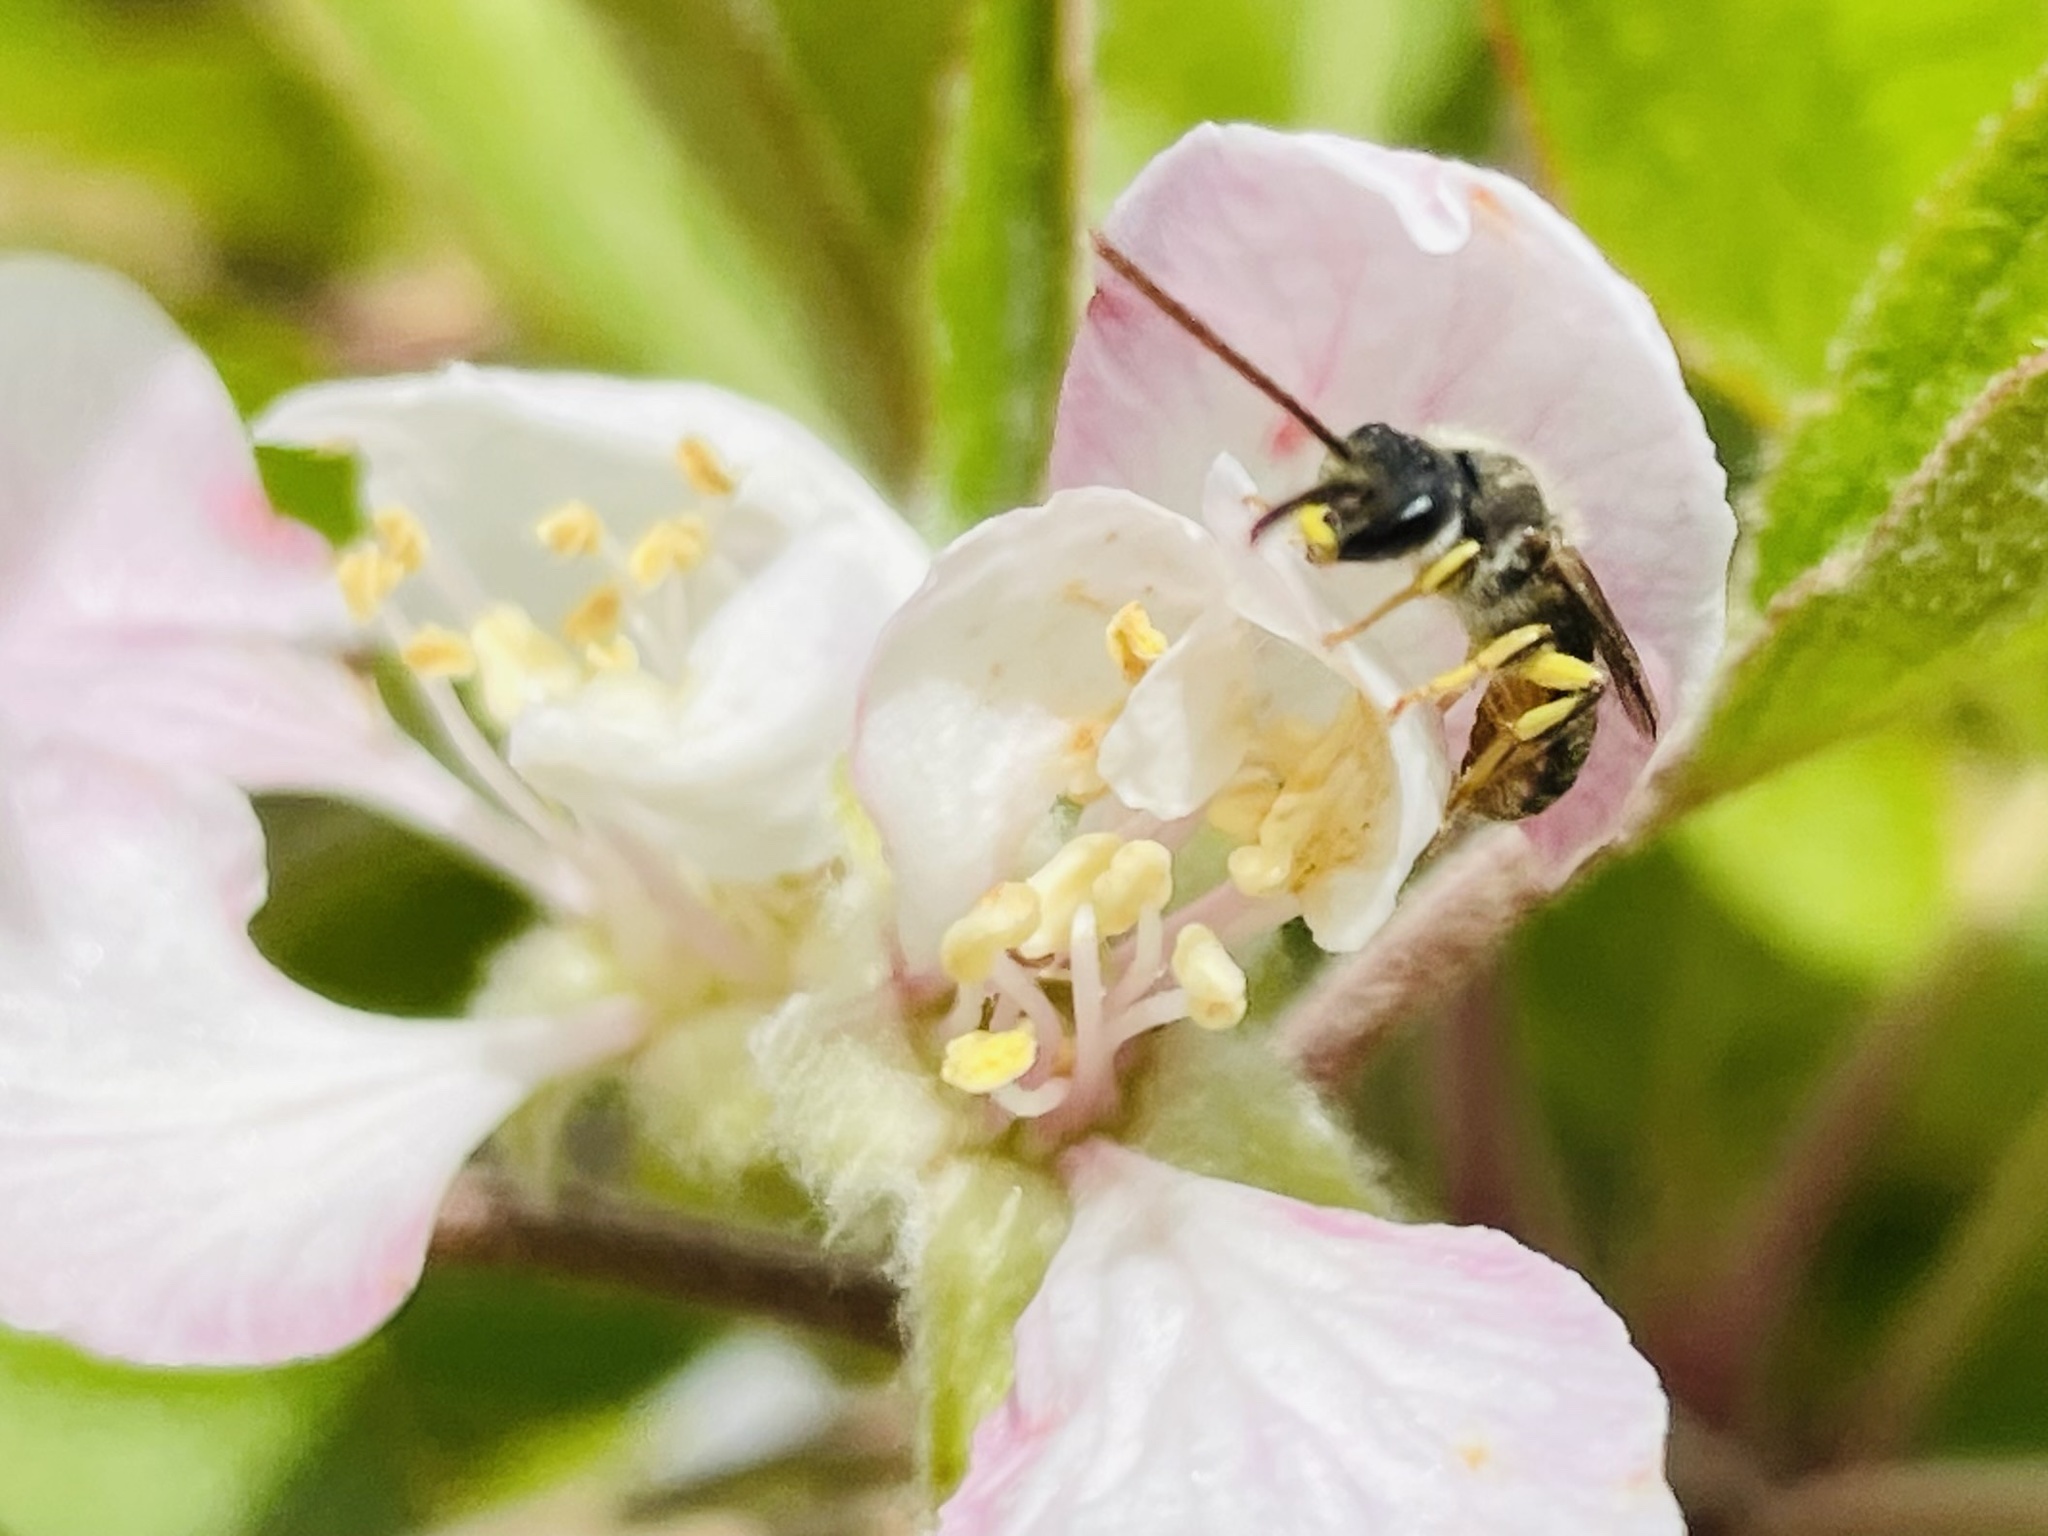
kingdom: Animalia
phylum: Arthropoda
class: Insecta
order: Hymenoptera
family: Halictidae
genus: Ruizantheda
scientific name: Ruizantheda proxima
